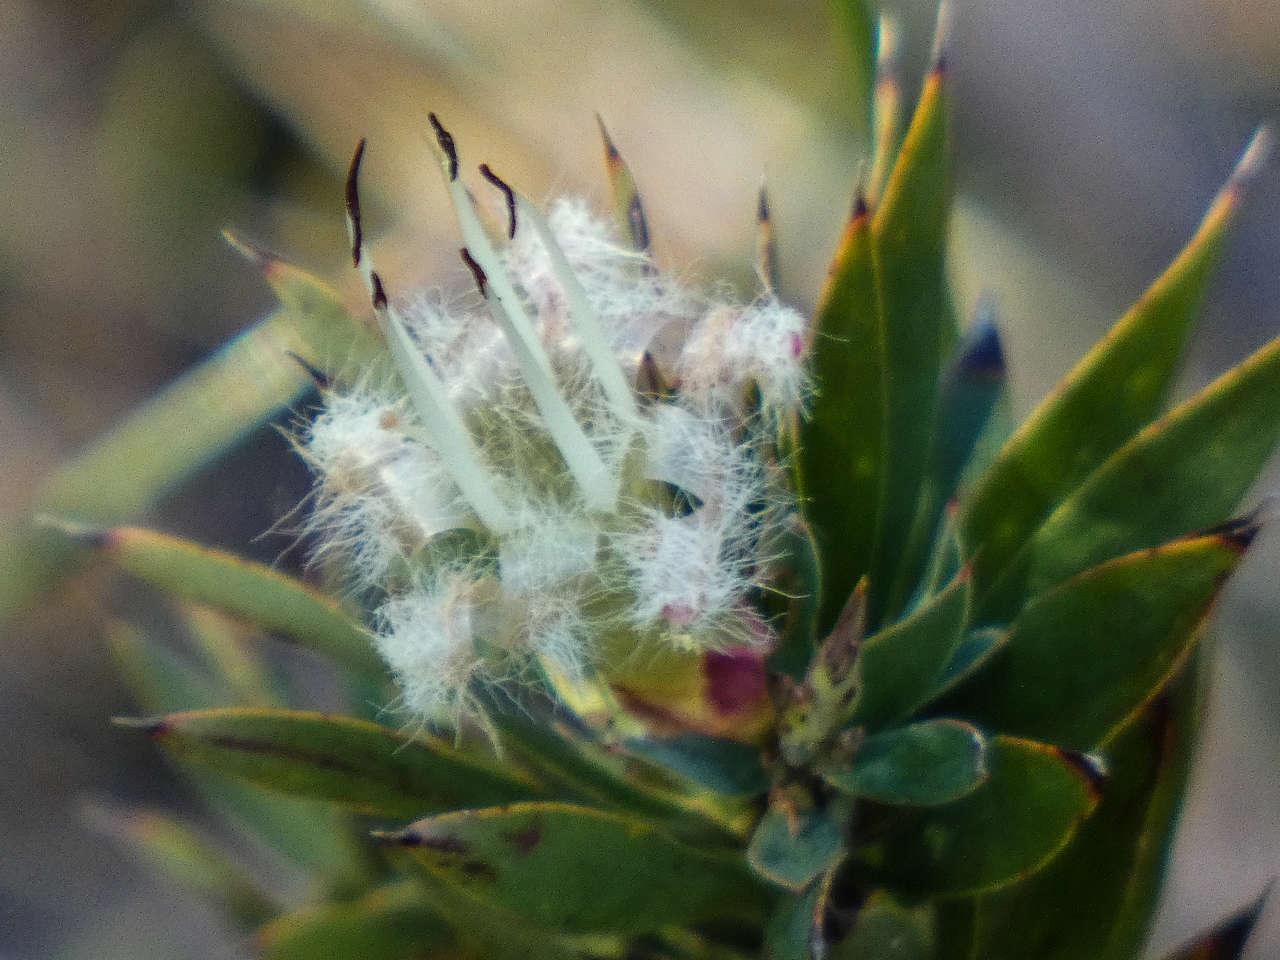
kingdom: Plantae
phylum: Tracheophyta
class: Magnoliopsida
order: Ericales
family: Ericaceae
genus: Styphelia
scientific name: Styphelia adscendens
